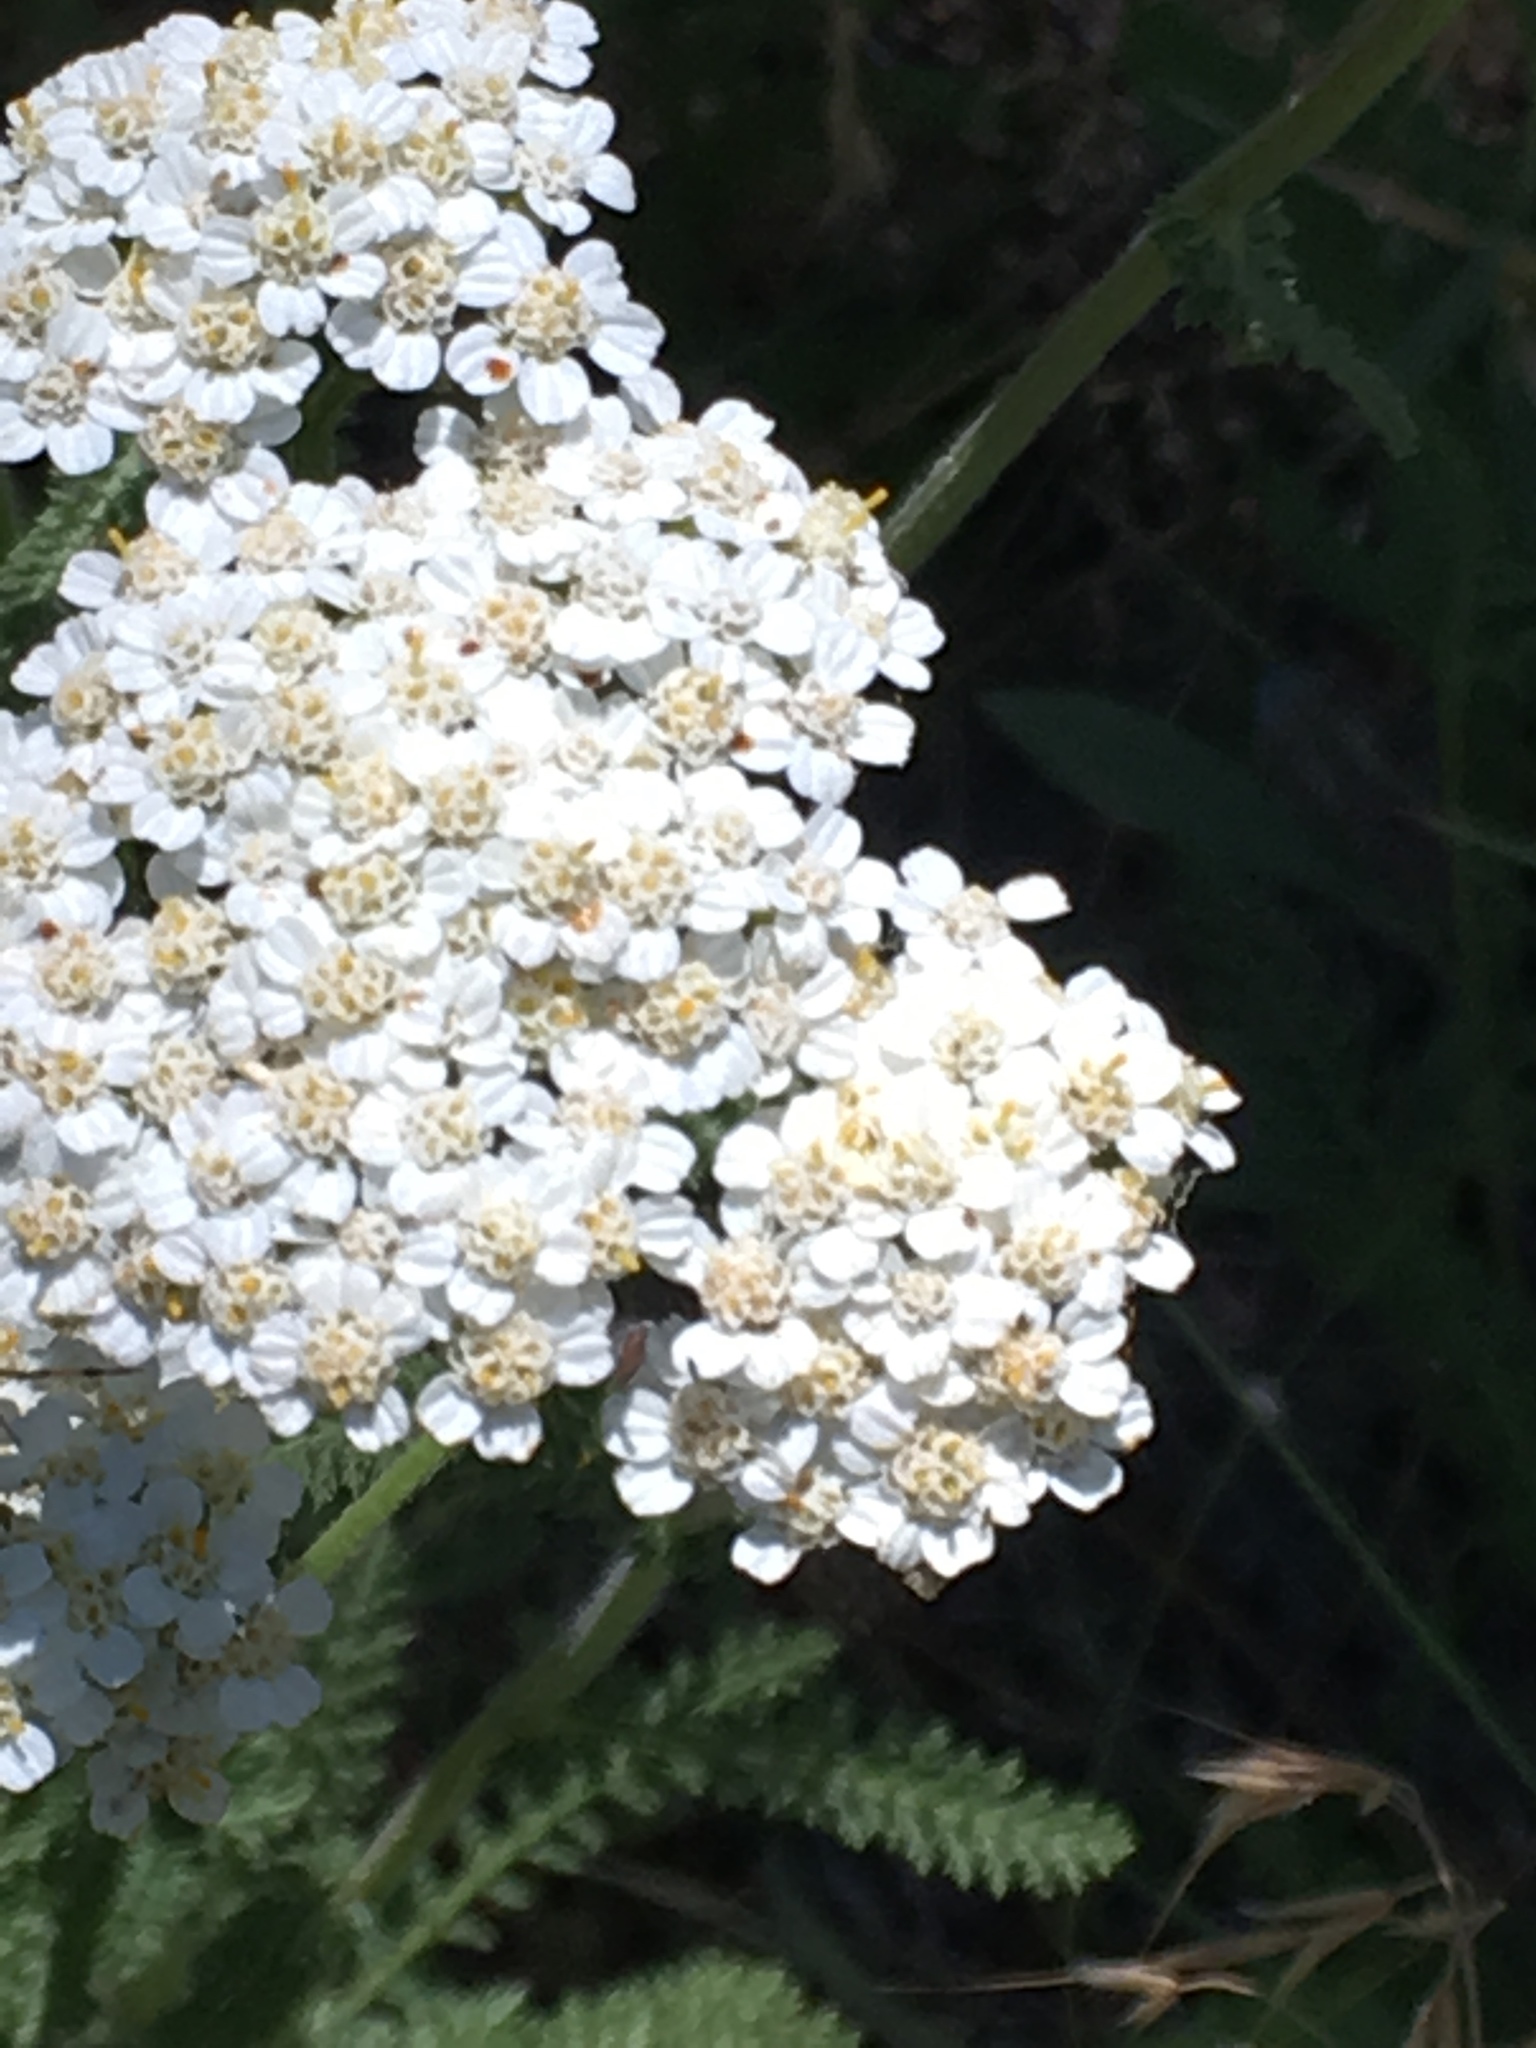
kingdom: Plantae
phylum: Tracheophyta
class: Magnoliopsida
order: Asterales
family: Asteraceae
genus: Achillea
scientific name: Achillea millefolium
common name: Yarrow
